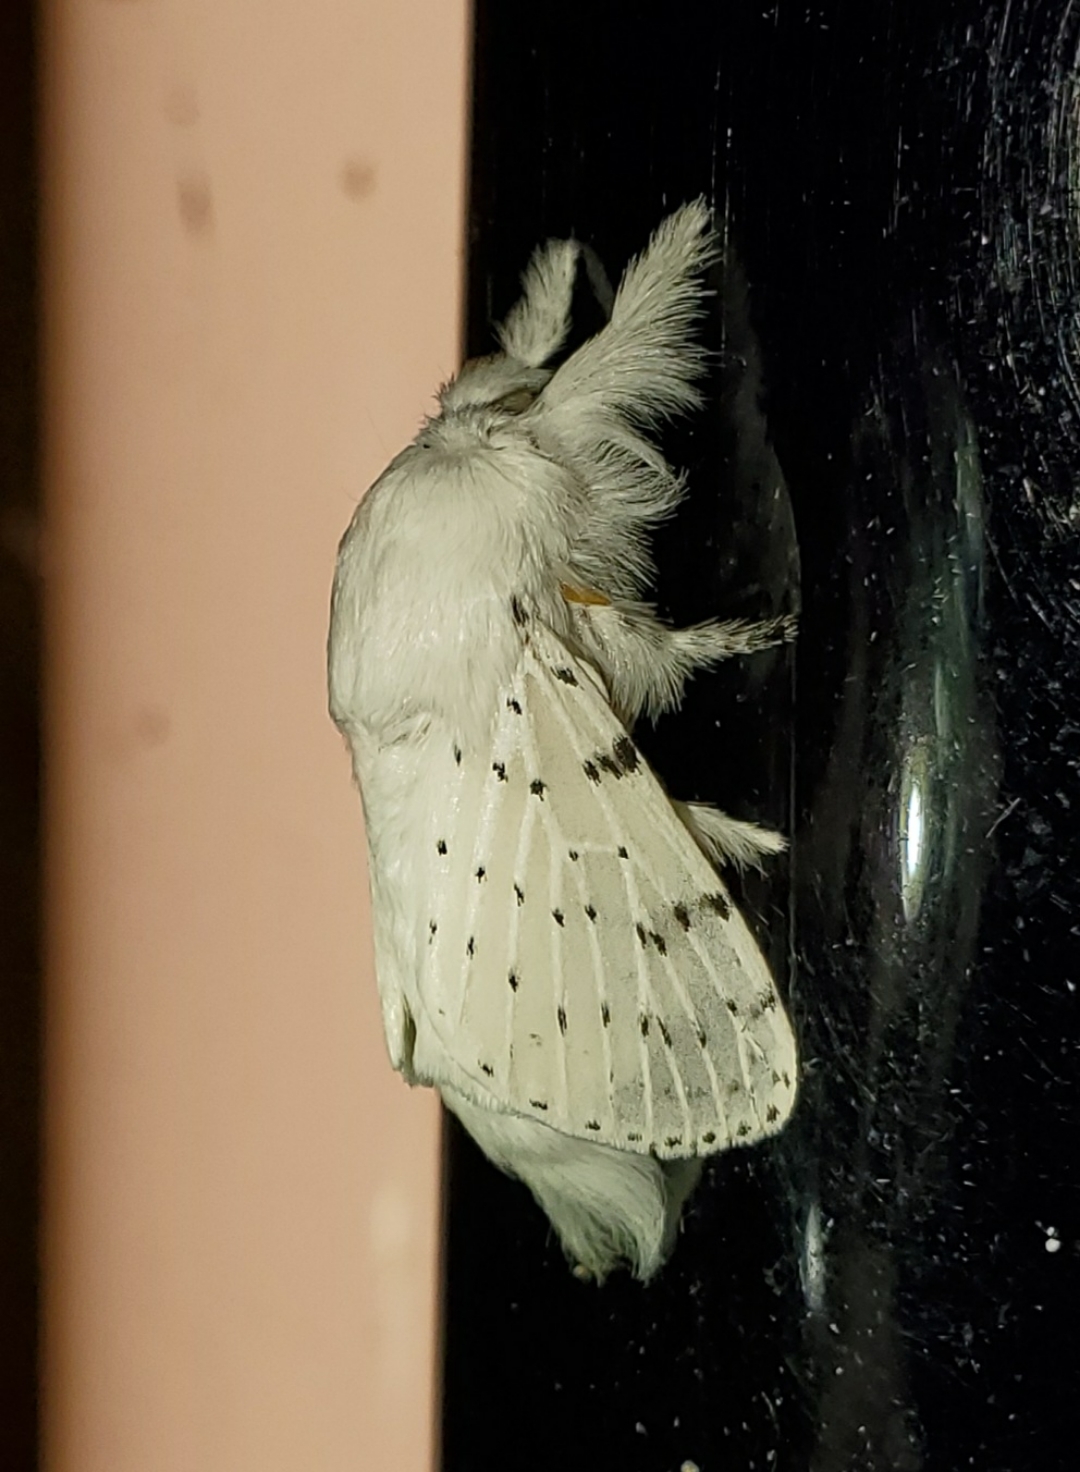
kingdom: Animalia
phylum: Arthropoda
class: Insecta
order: Lepidoptera
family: Lasiocampidae
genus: Artace
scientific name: Artace cribrarius
